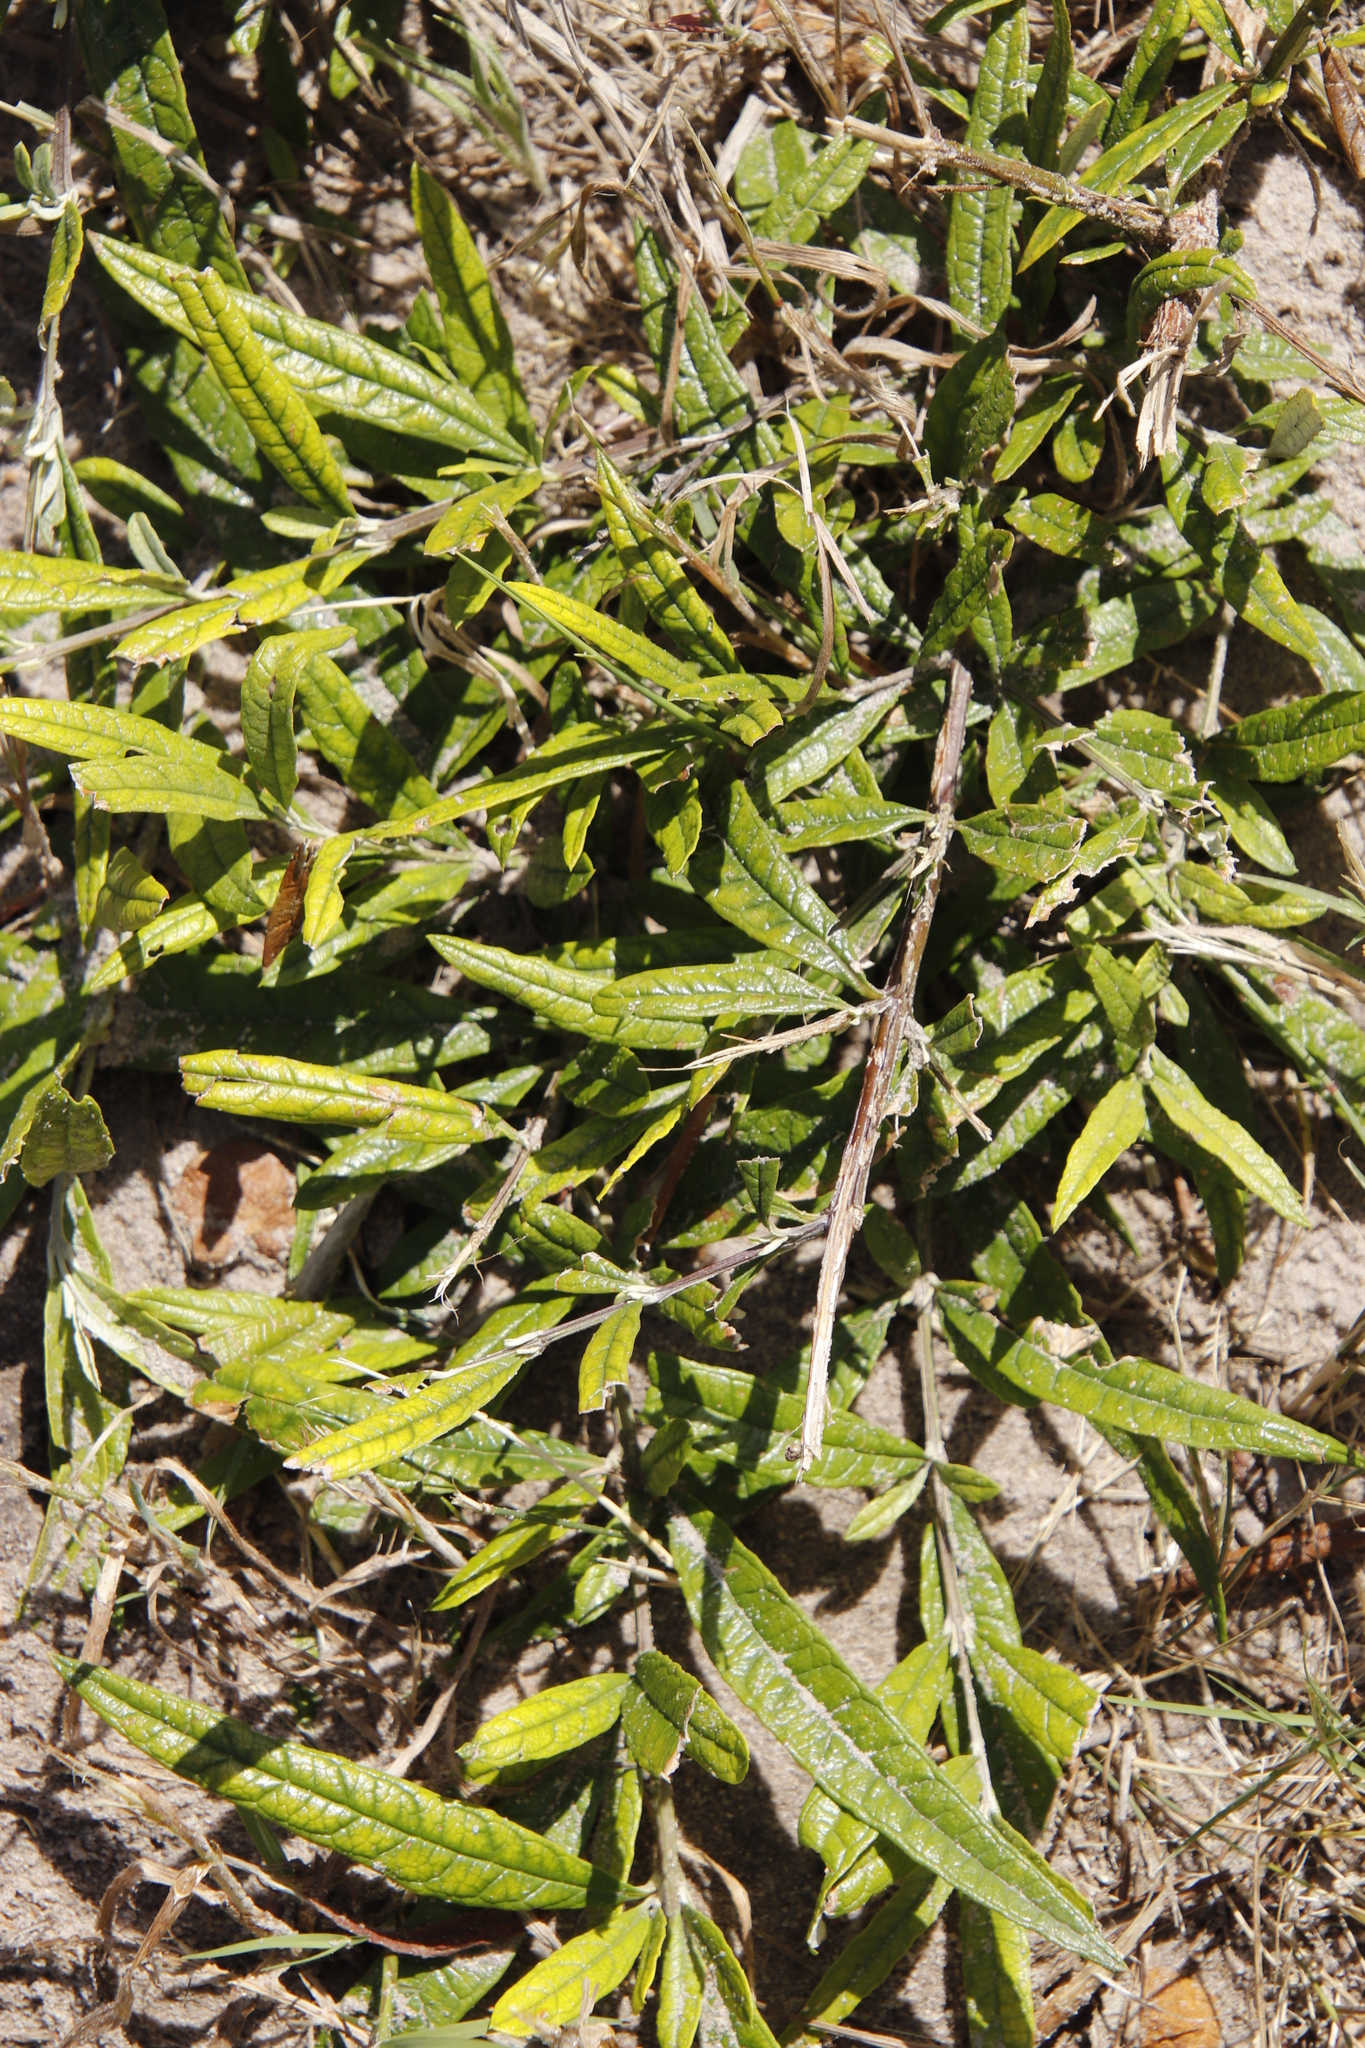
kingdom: Plantae
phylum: Tracheophyta
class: Magnoliopsida
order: Lamiales
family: Scrophulariaceae
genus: Buddleja
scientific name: Buddleja saligna
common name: False olive
